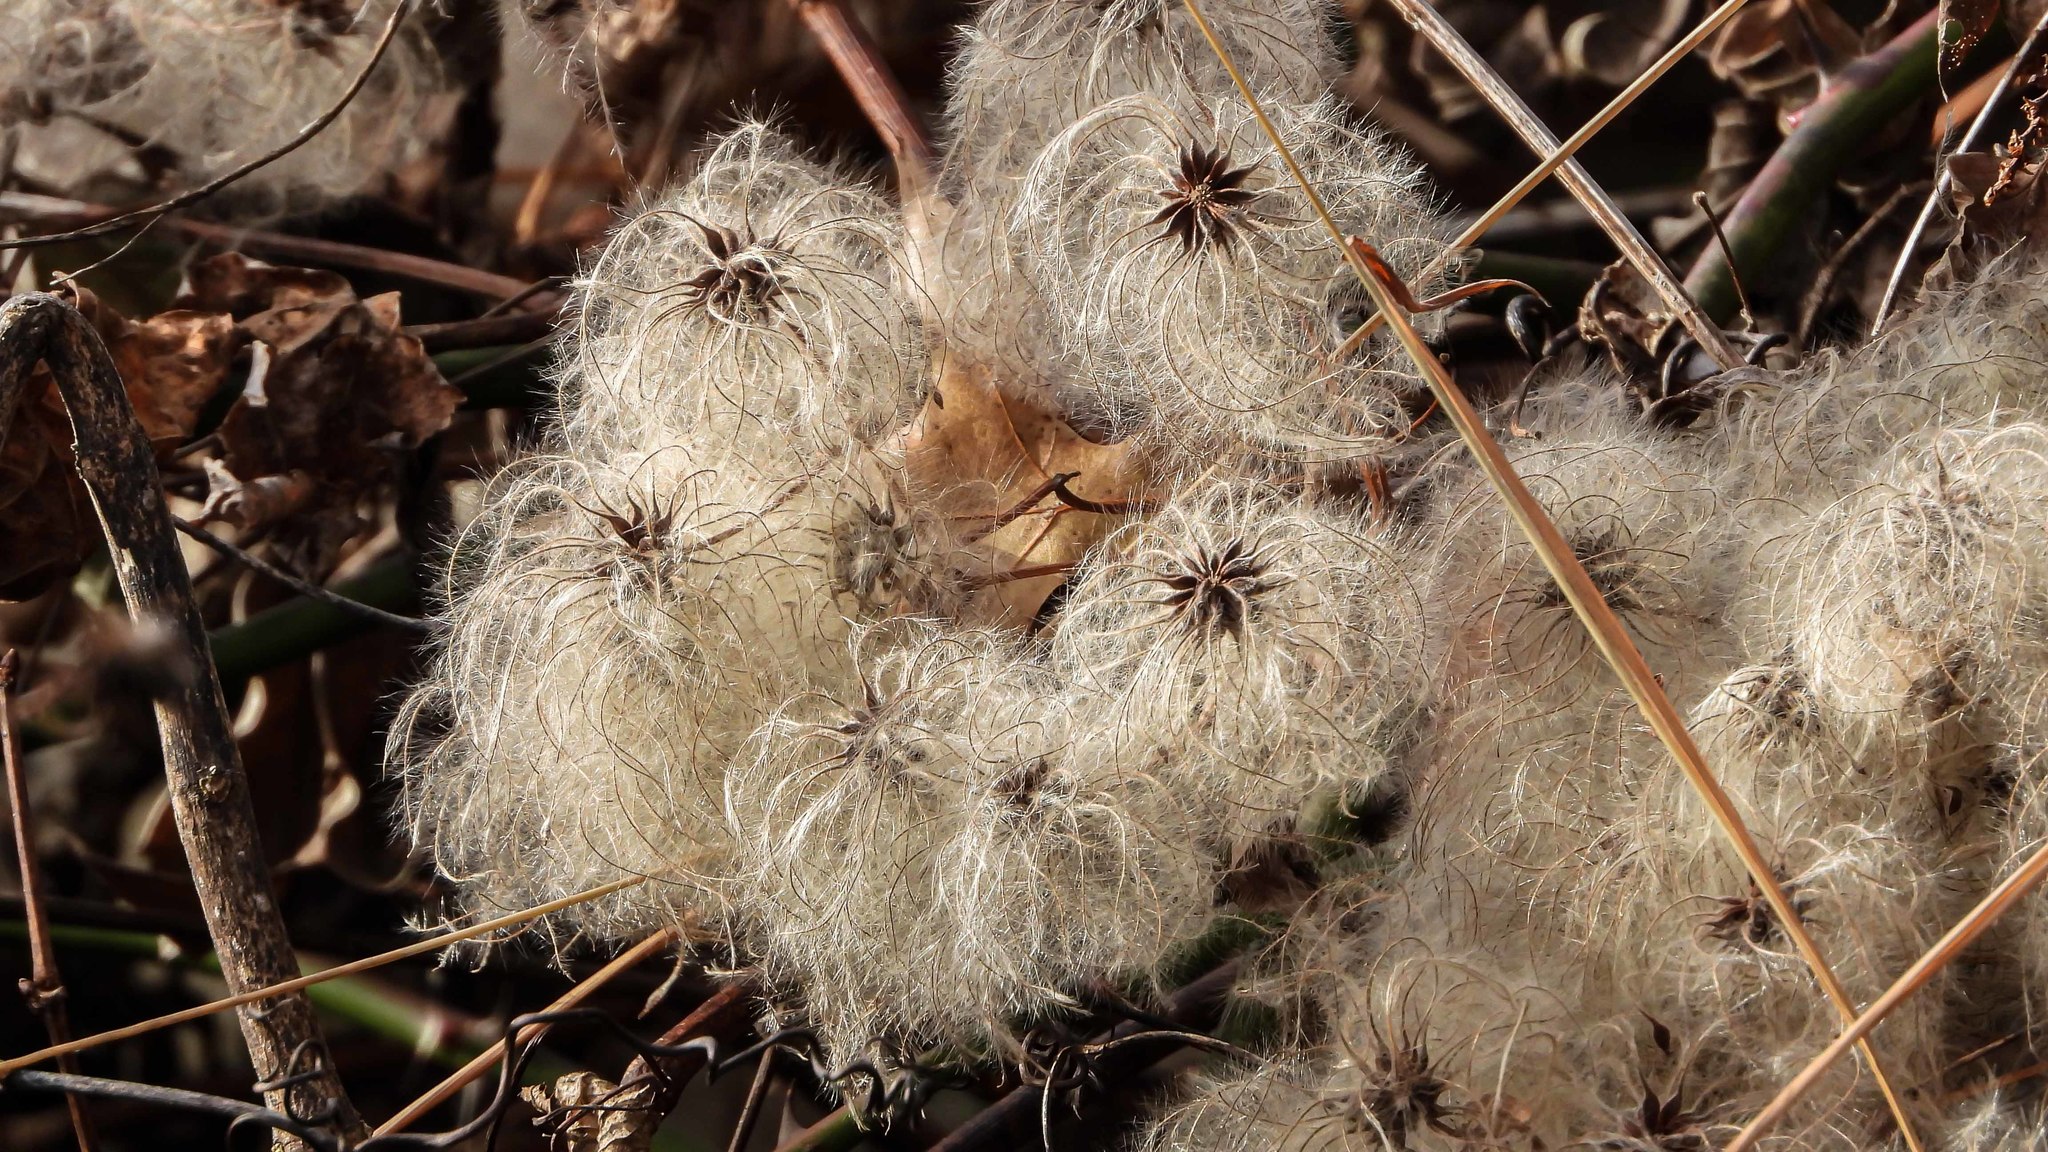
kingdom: Plantae
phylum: Tracheophyta
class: Magnoliopsida
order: Ranunculales
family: Ranunculaceae
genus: Clematis
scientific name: Clematis virginiana
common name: Virgin's-bower
